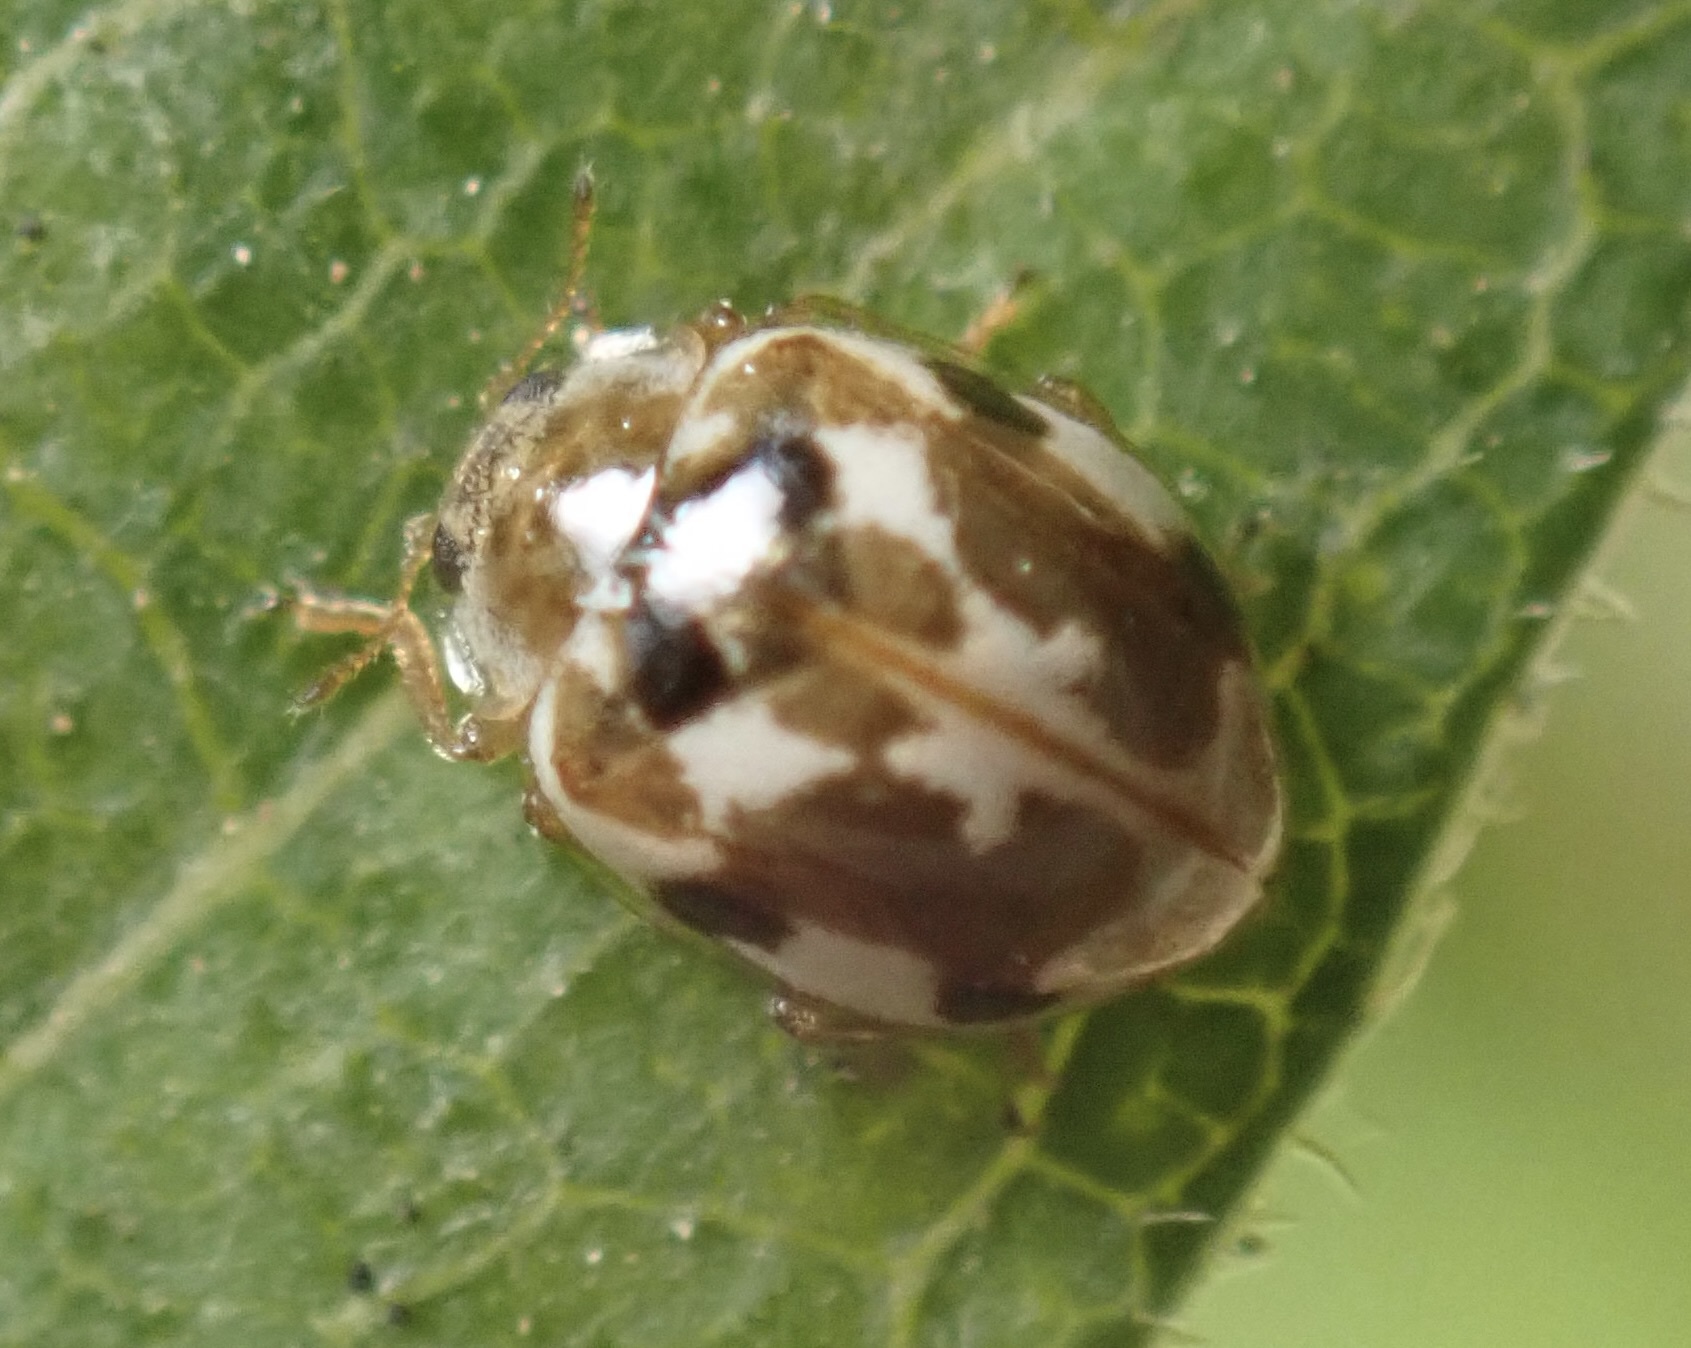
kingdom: Animalia
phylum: Arthropoda
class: Insecta
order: Coleoptera
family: Coccinellidae
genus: Psyllobora
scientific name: Psyllobora vigintimaculata
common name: Ladybird beetle
